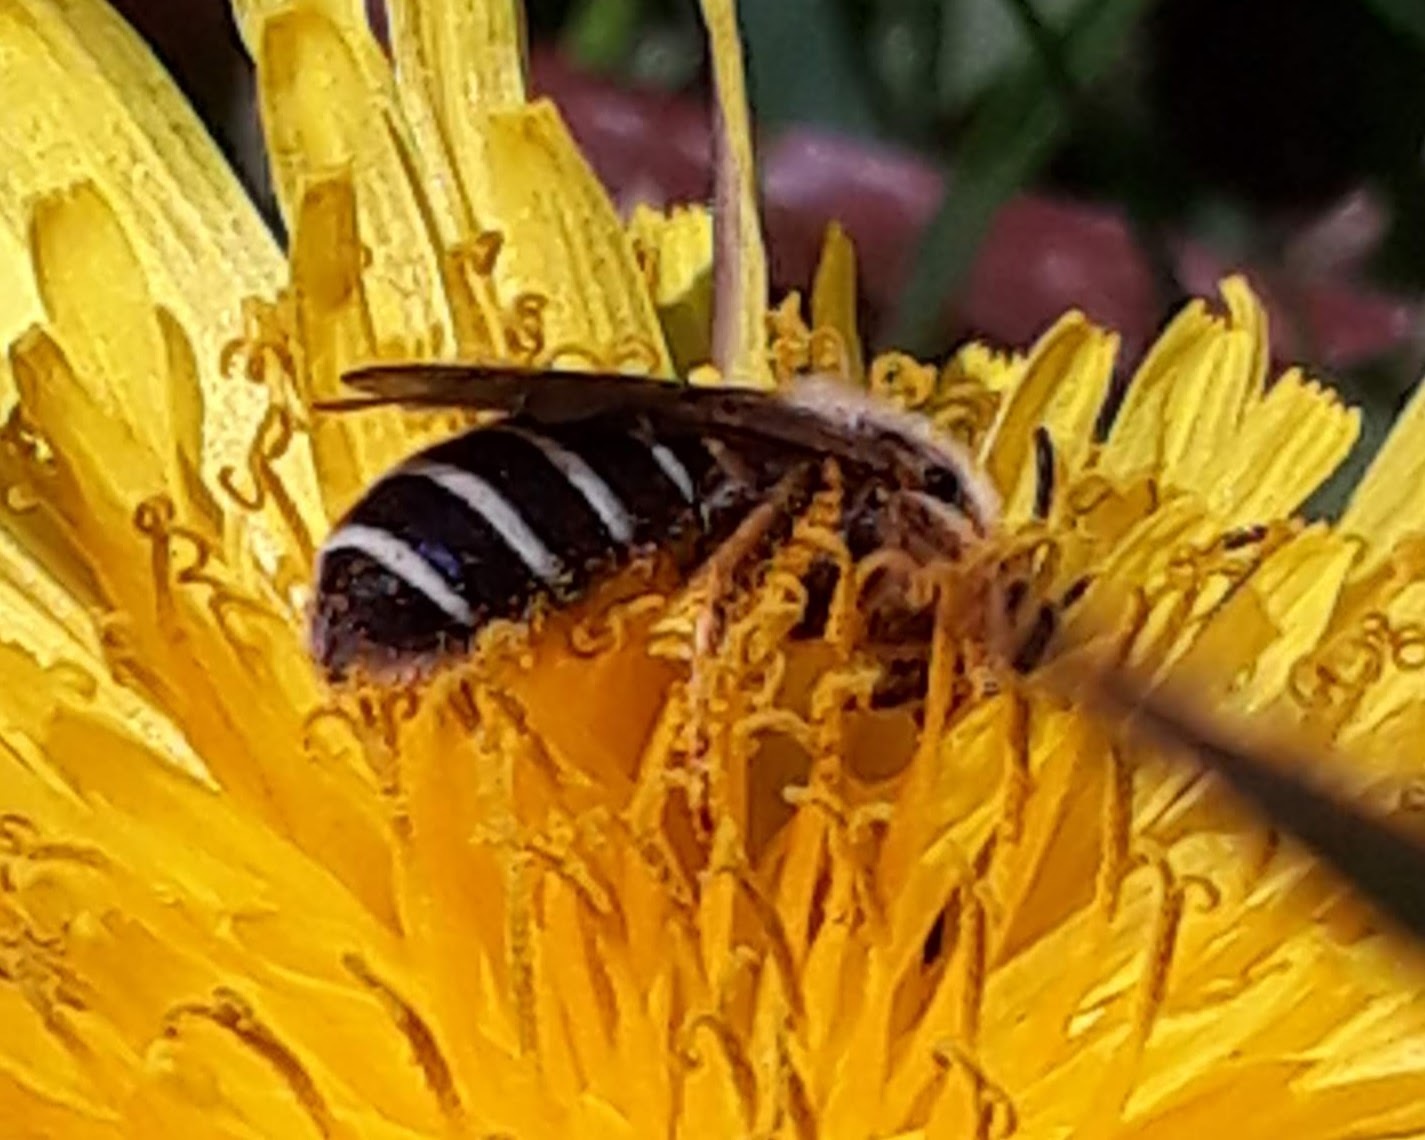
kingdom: Animalia
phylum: Arthropoda
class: Insecta
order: Hymenoptera
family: Halictidae
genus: Halictus
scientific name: Halictus rubicundus
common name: Orange-legged furrow bee
